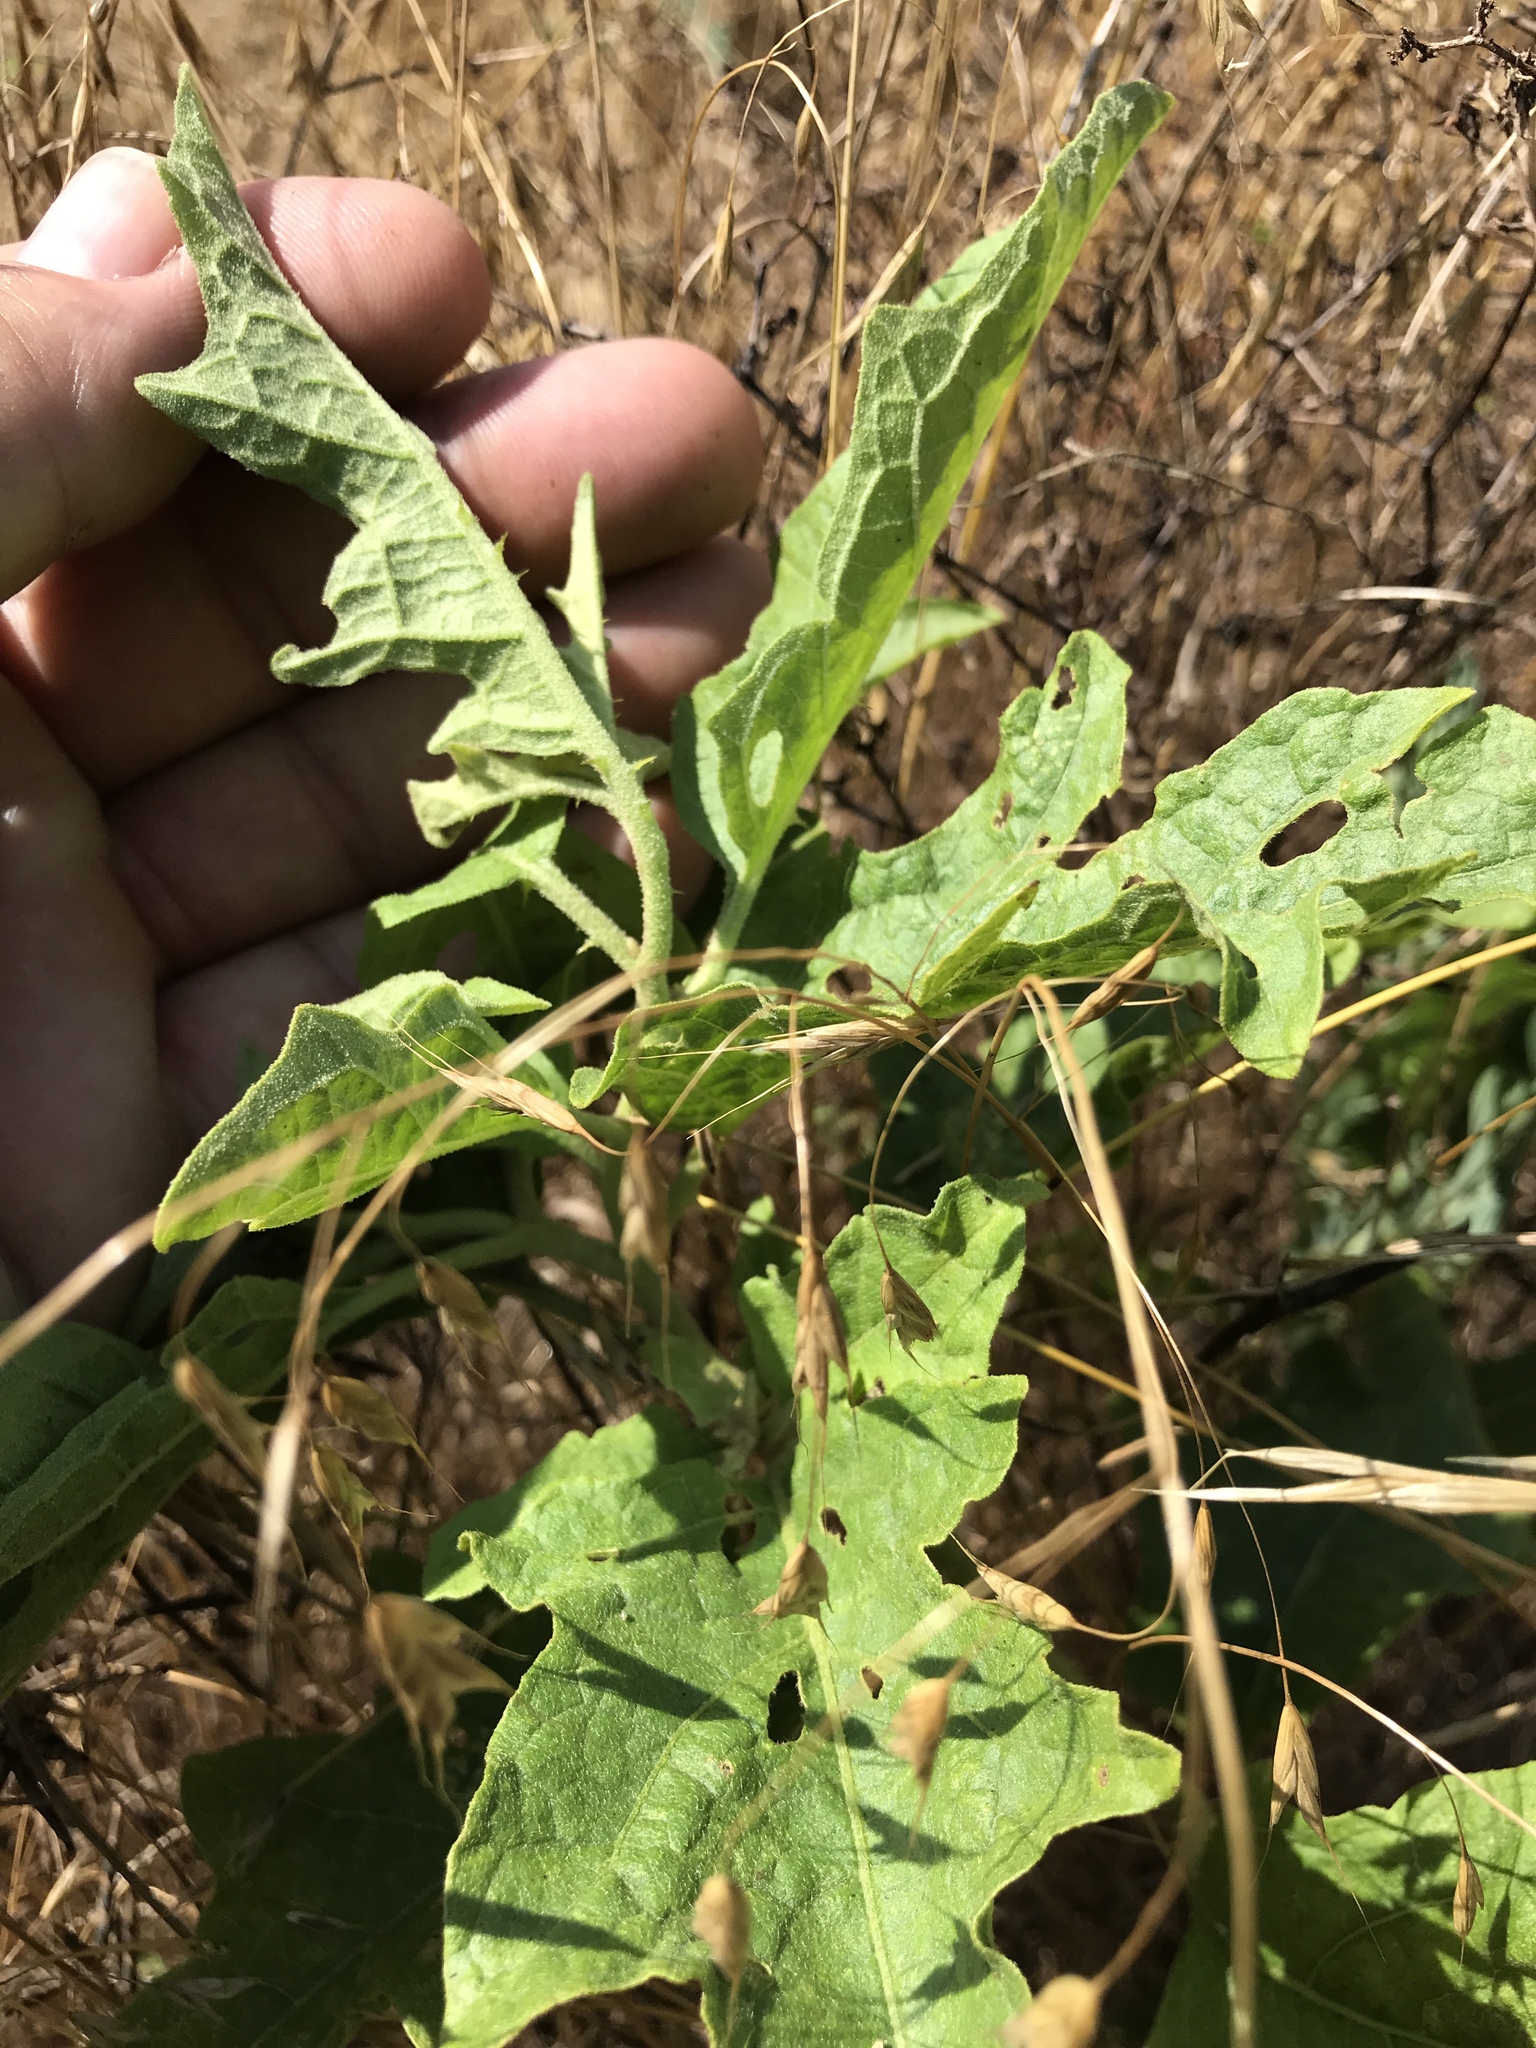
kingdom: Plantae
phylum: Tracheophyta
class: Magnoliopsida
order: Solanales
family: Solanaceae
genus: Solanum
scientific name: Solanum dimidiatum
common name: Carolina horse-nettle
